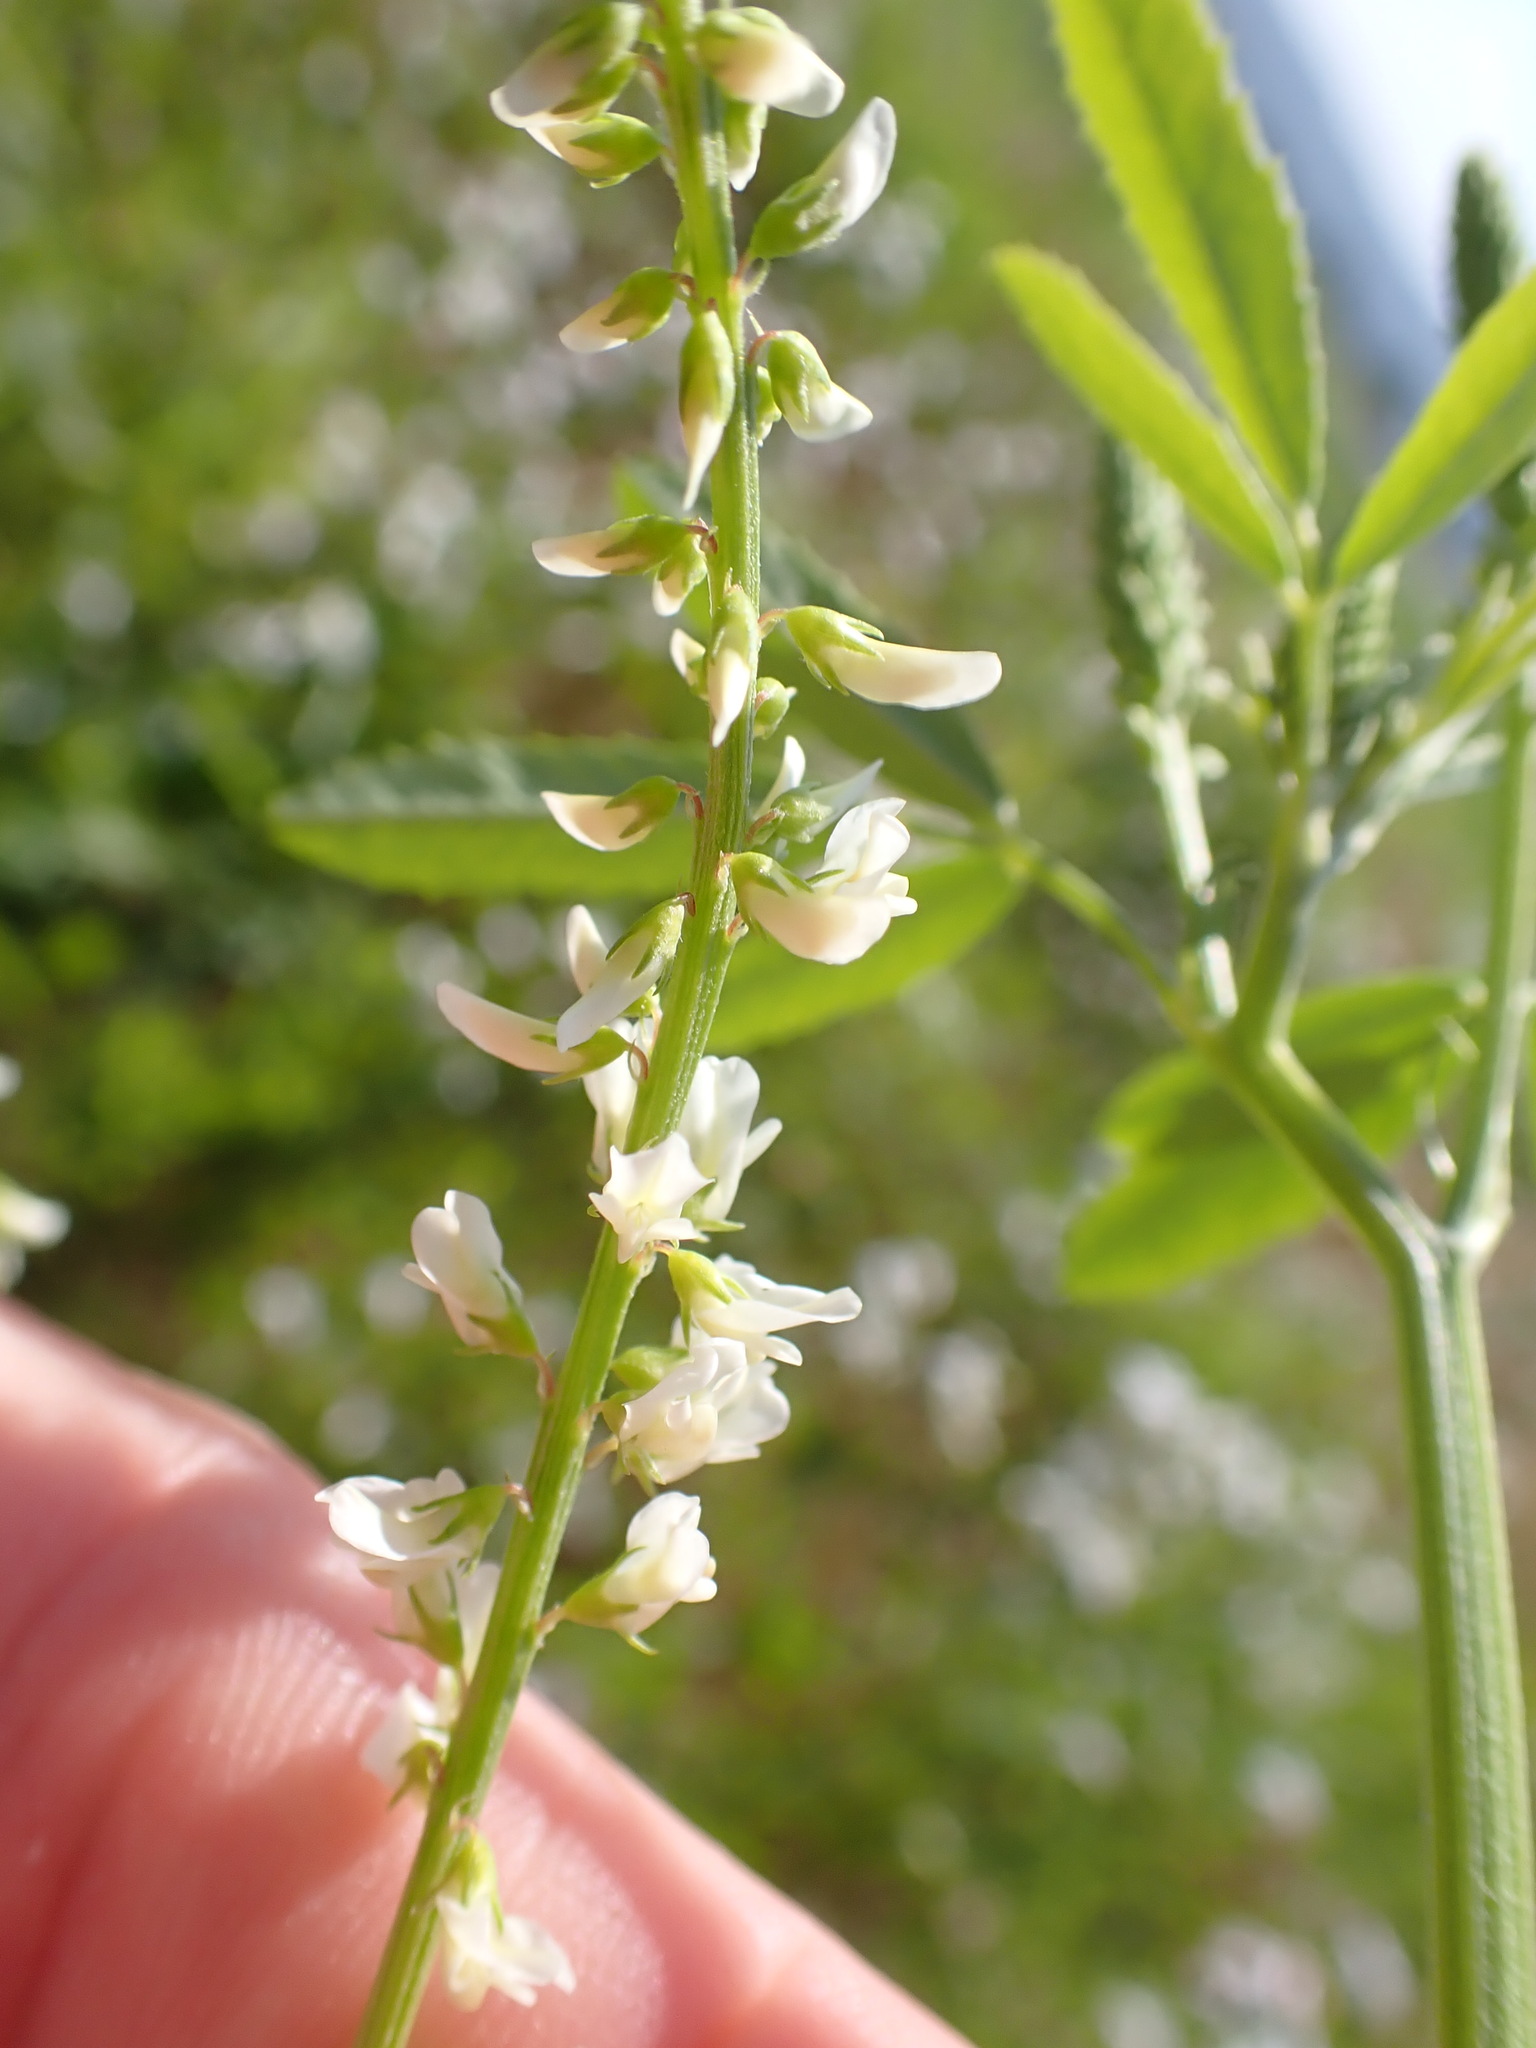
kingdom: Plantae
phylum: Tracheophyta
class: Magnoliopsida
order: Fabales
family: Fabaceae
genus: Melilotus
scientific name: Melilotus albus
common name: White melilot
